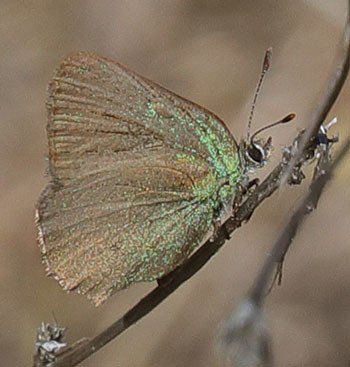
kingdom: Animalia
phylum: Arthropoda
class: Insecta
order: Lepidoptera
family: Lycaenidae
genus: Callophrys
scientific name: Callophrys dumetorum
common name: Bramble hairstreak
